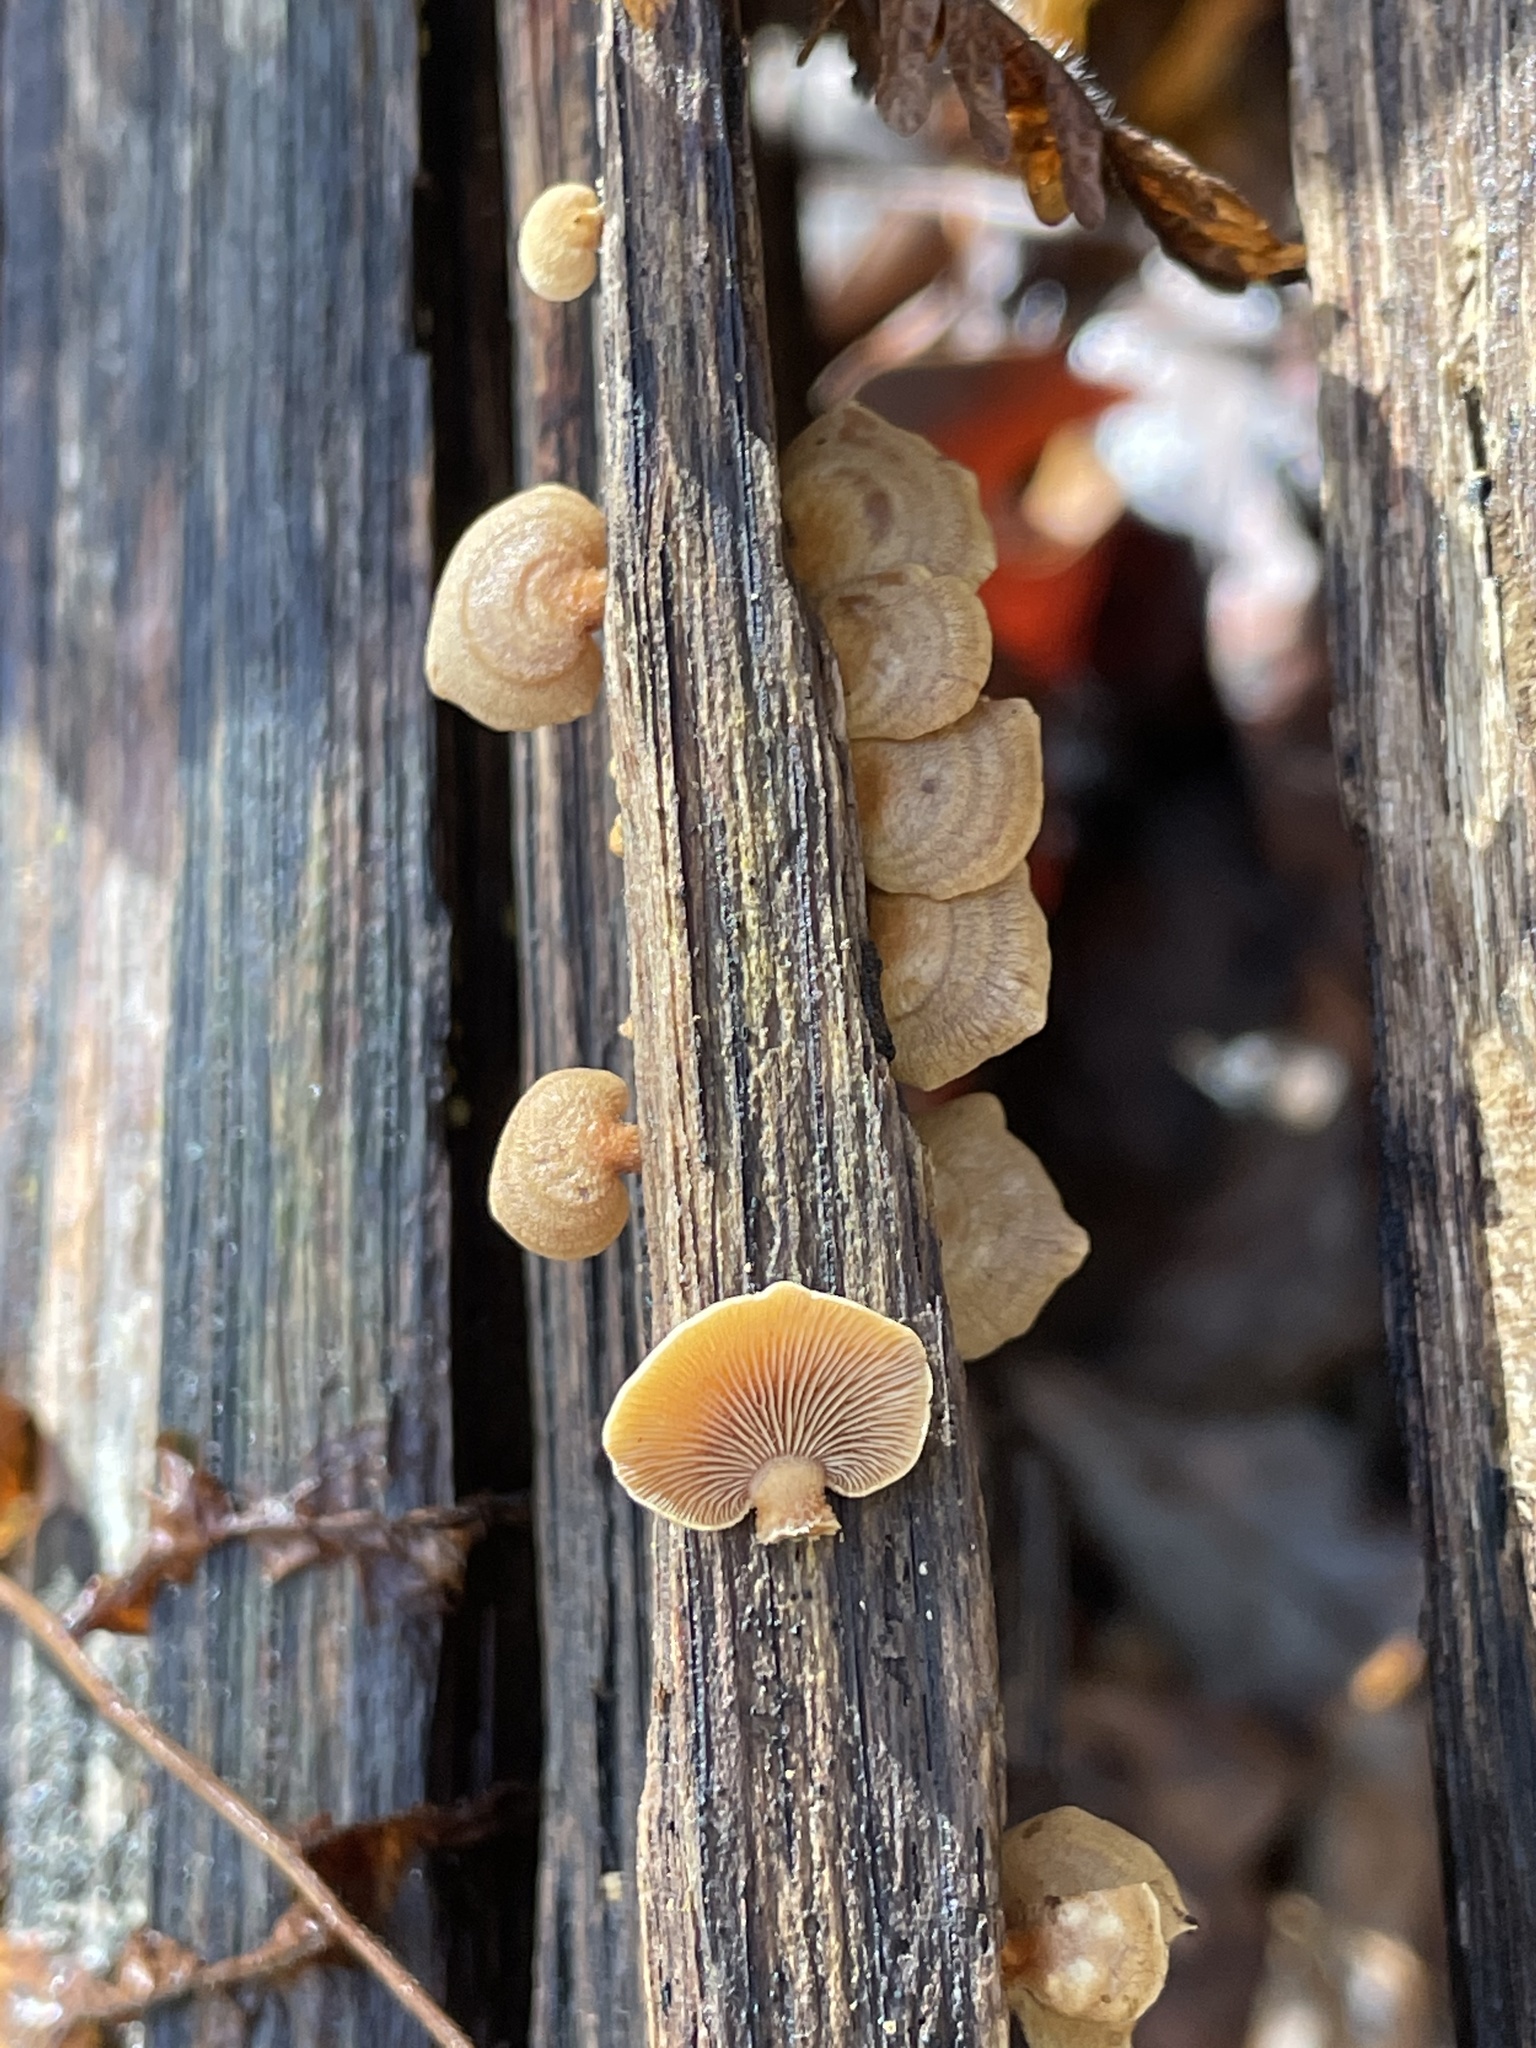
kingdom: Fungi
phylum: Basidiomycota
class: Agaricomycetes
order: Agaricales
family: Mycenaceae
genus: Panellus
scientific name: Panellus stipticus
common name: Bitter oysterling
